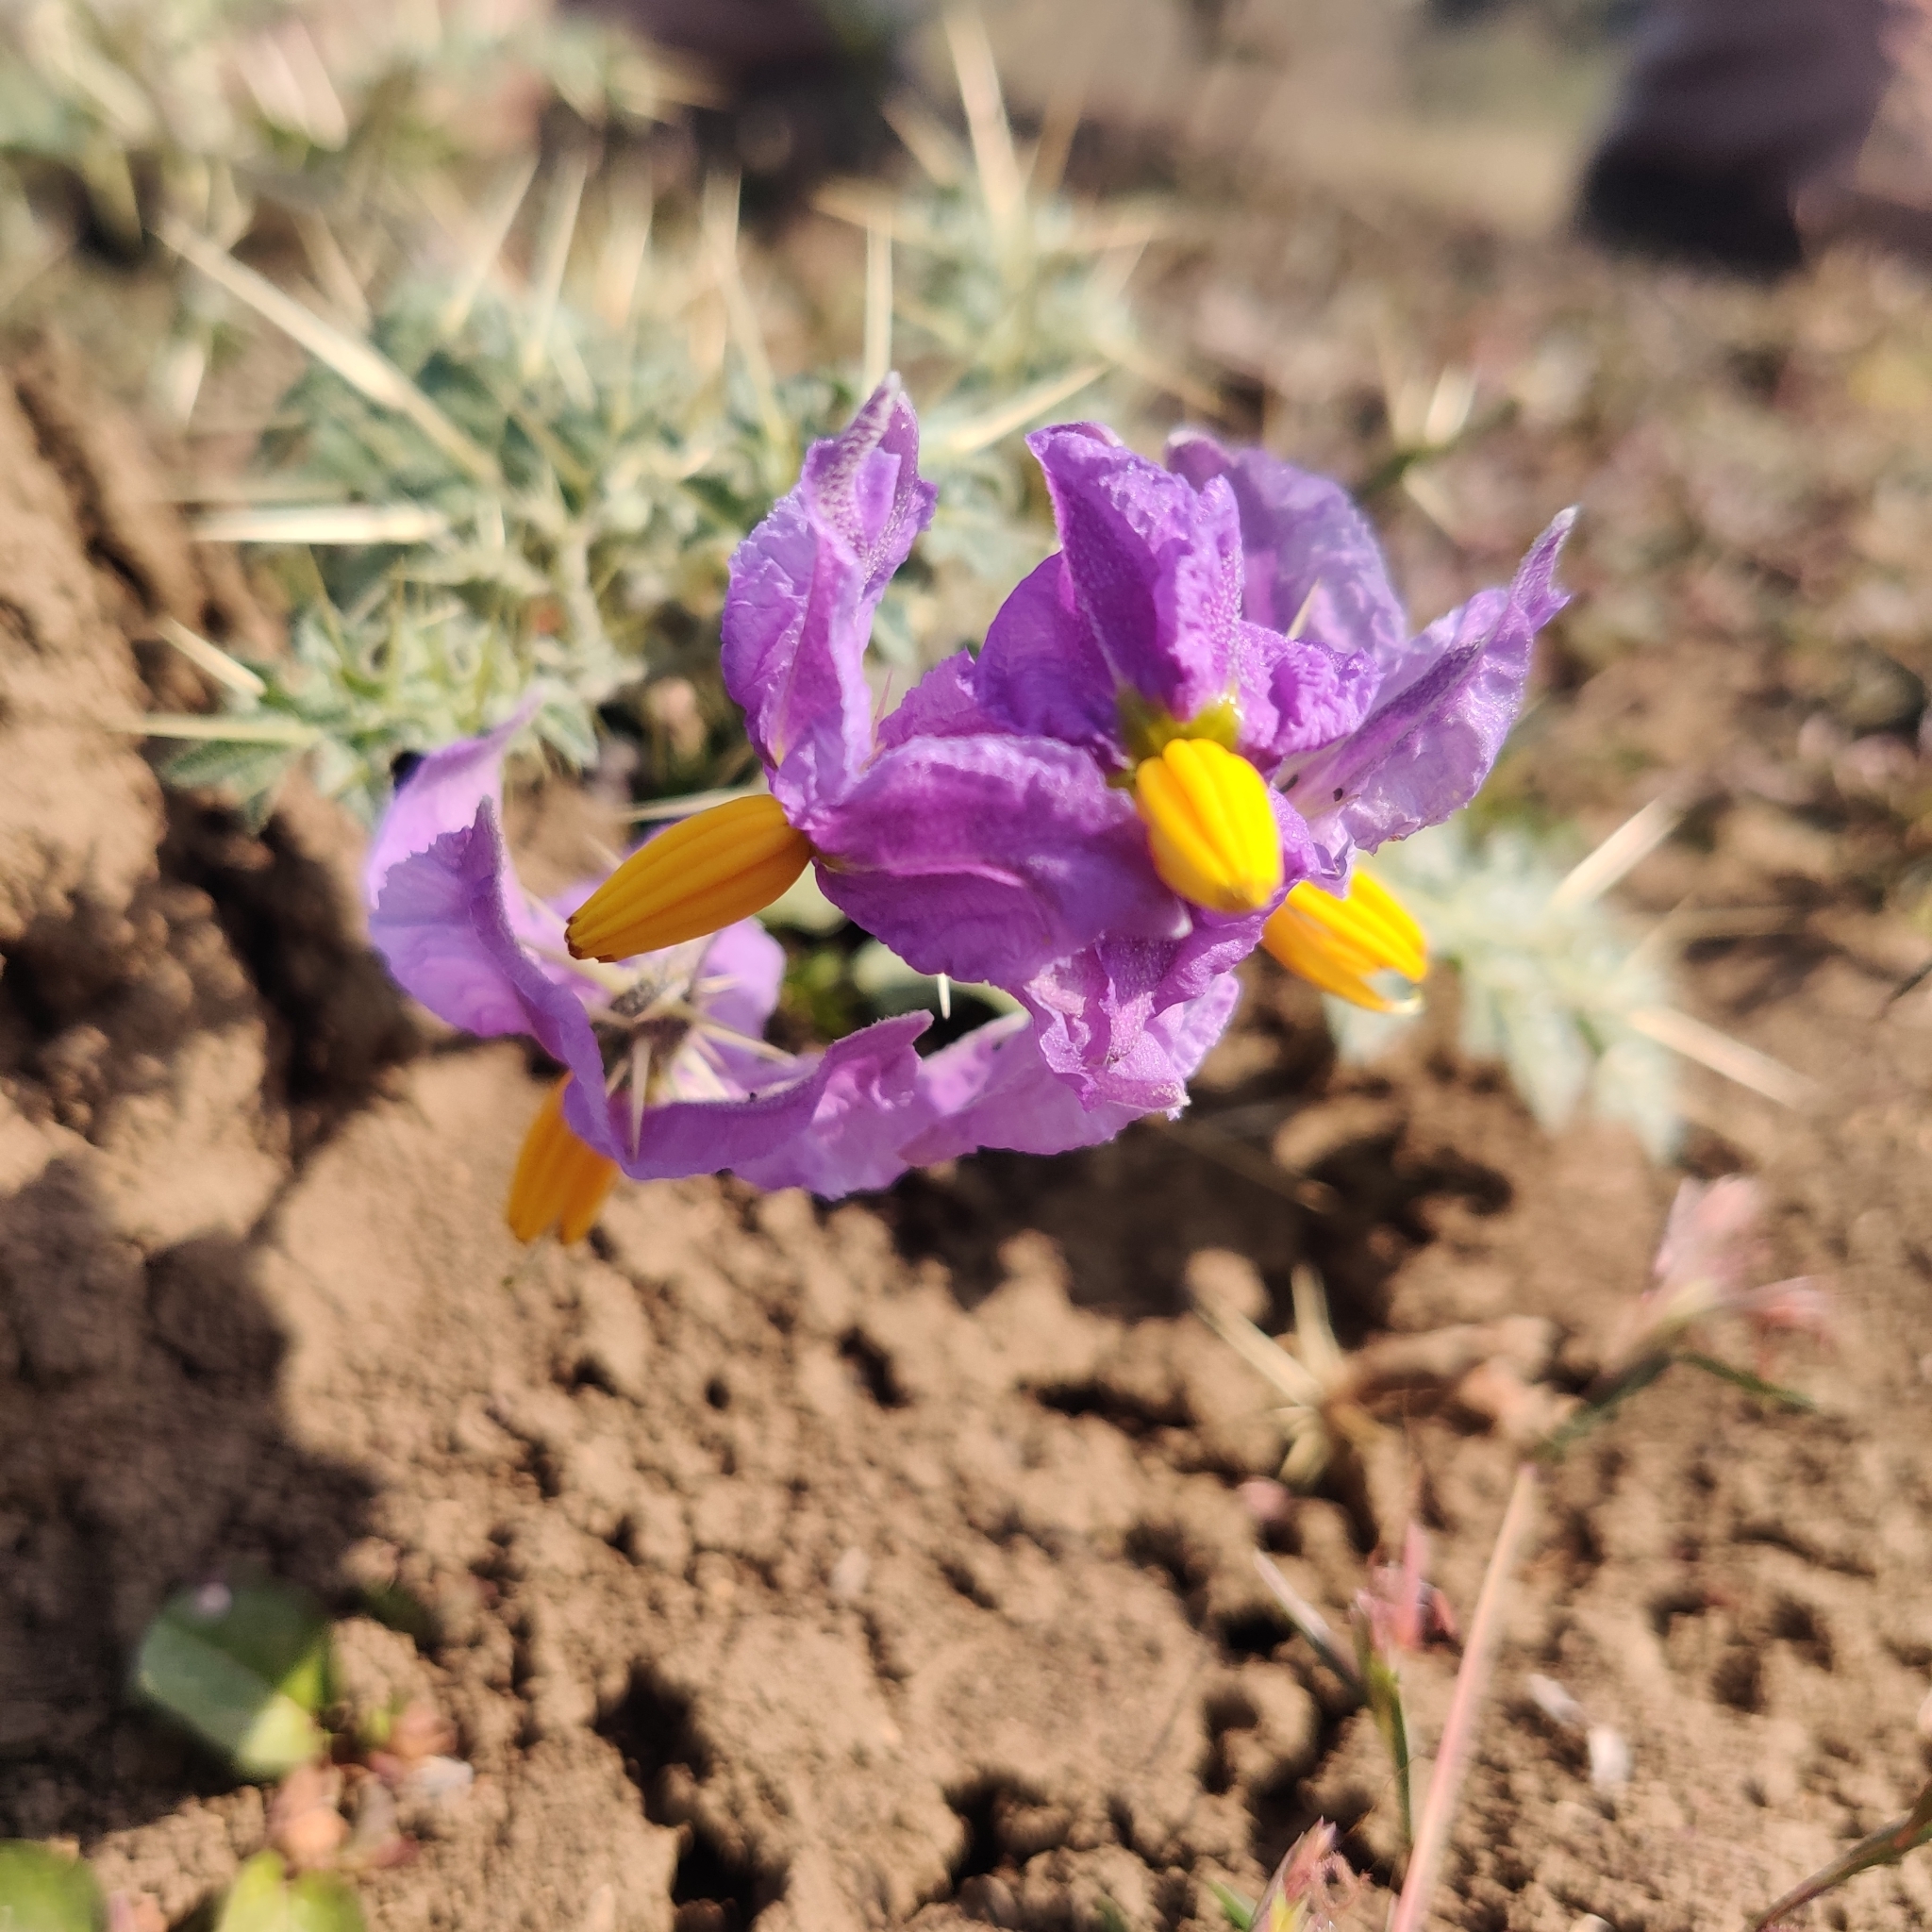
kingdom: Plantae
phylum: Tracheophyta
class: Magnoliopsida
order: Solanales
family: Solanaceae
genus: Solanum
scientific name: Solanum virginianum
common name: Surattense nightshade
